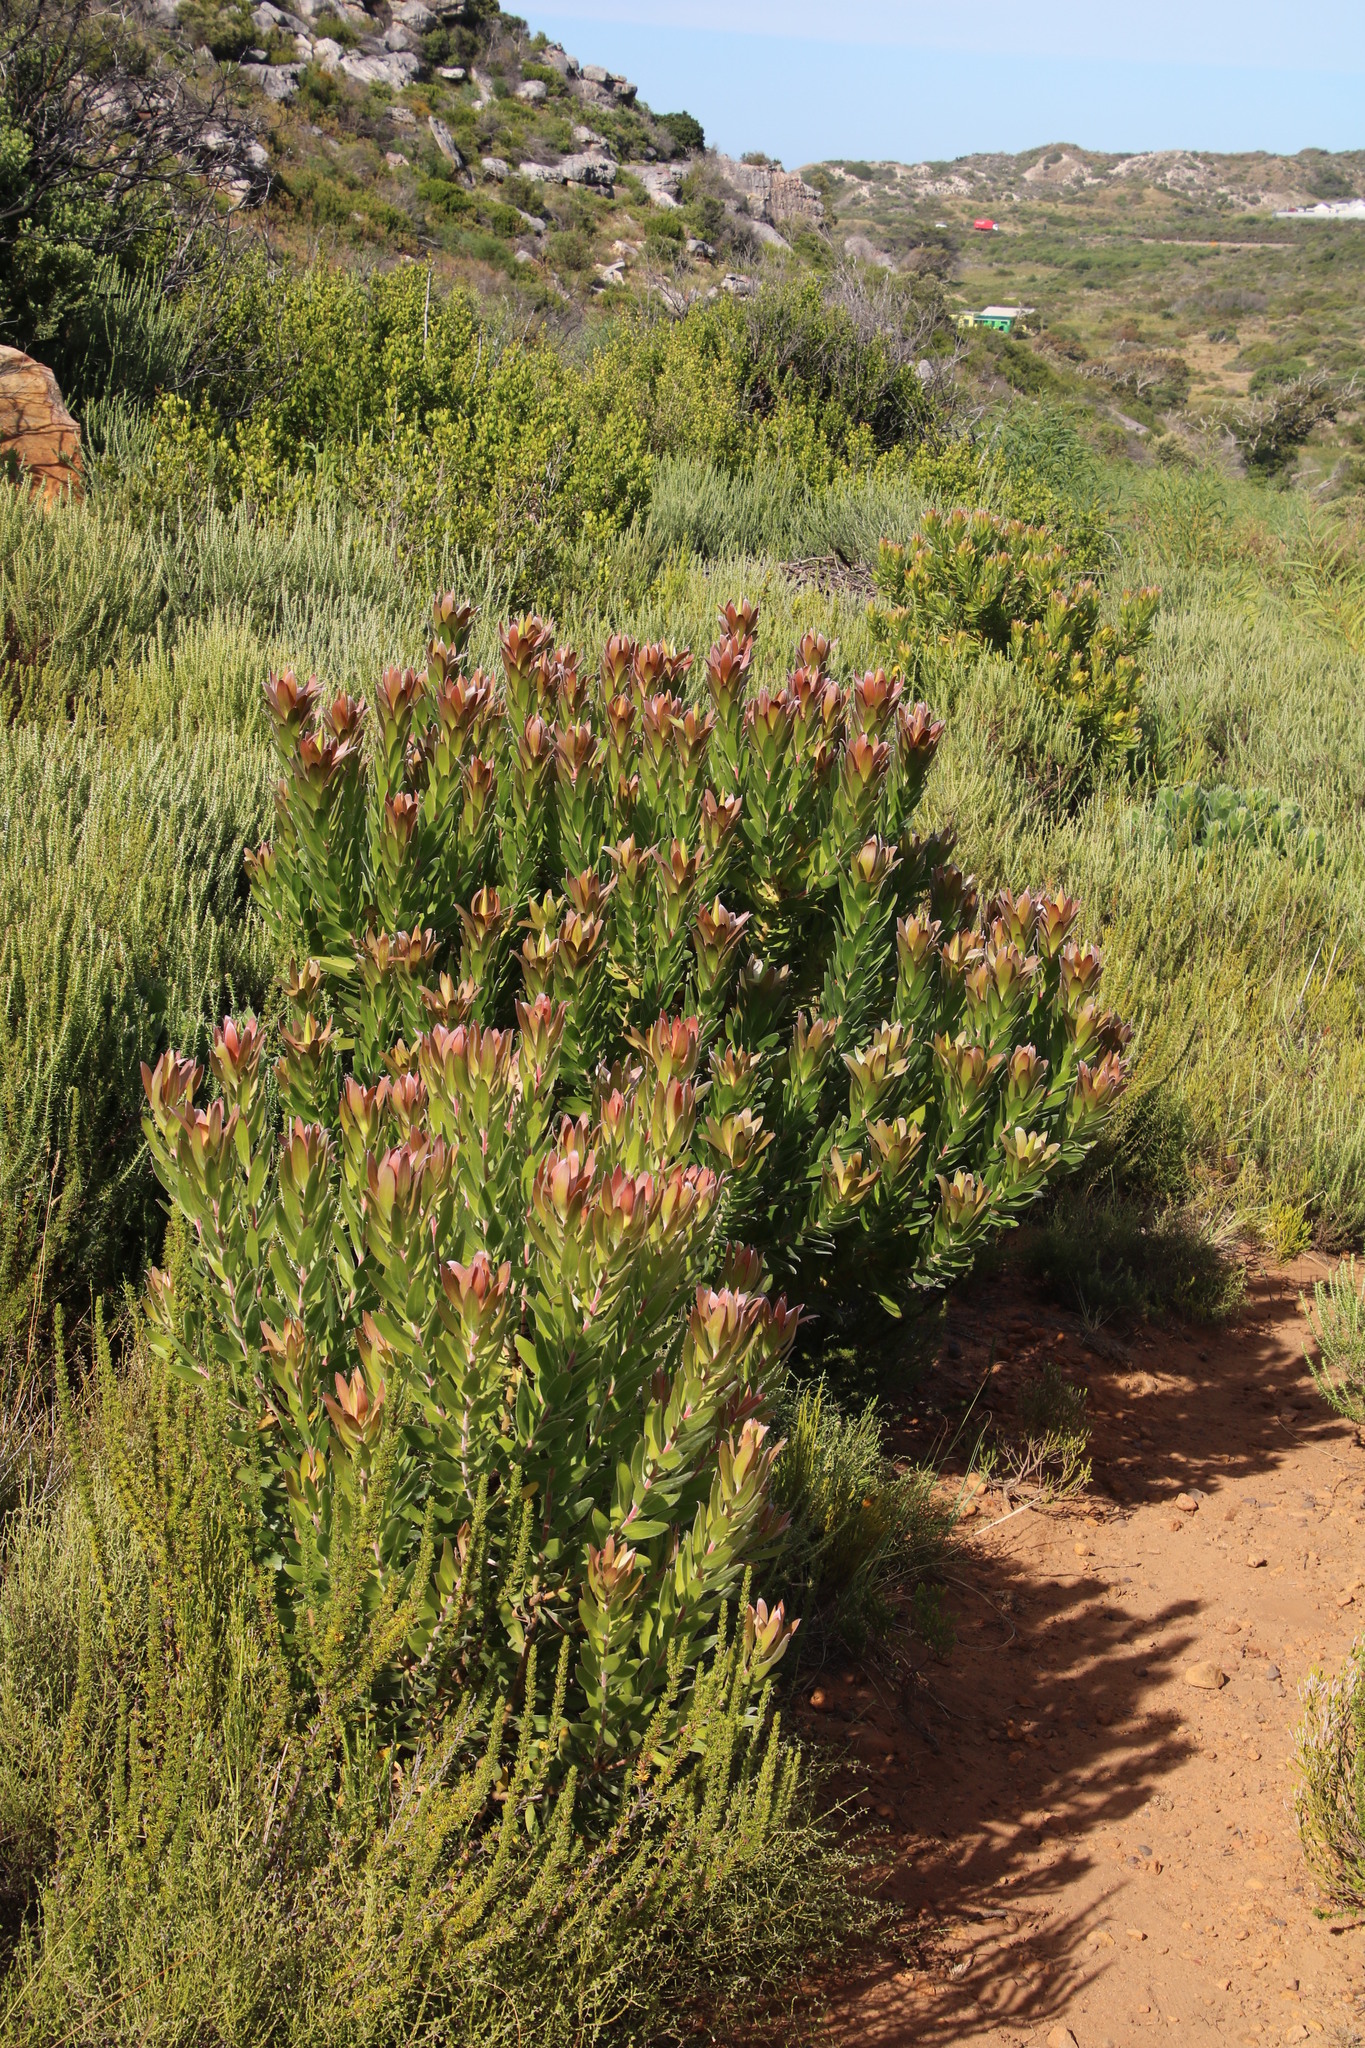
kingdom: Plantae
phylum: Tracheophyta
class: Magnoliopsida
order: Proteales
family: Proteaceae
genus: Leucadendron
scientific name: Leucadendron laureolum
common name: Golden sunshinebush
